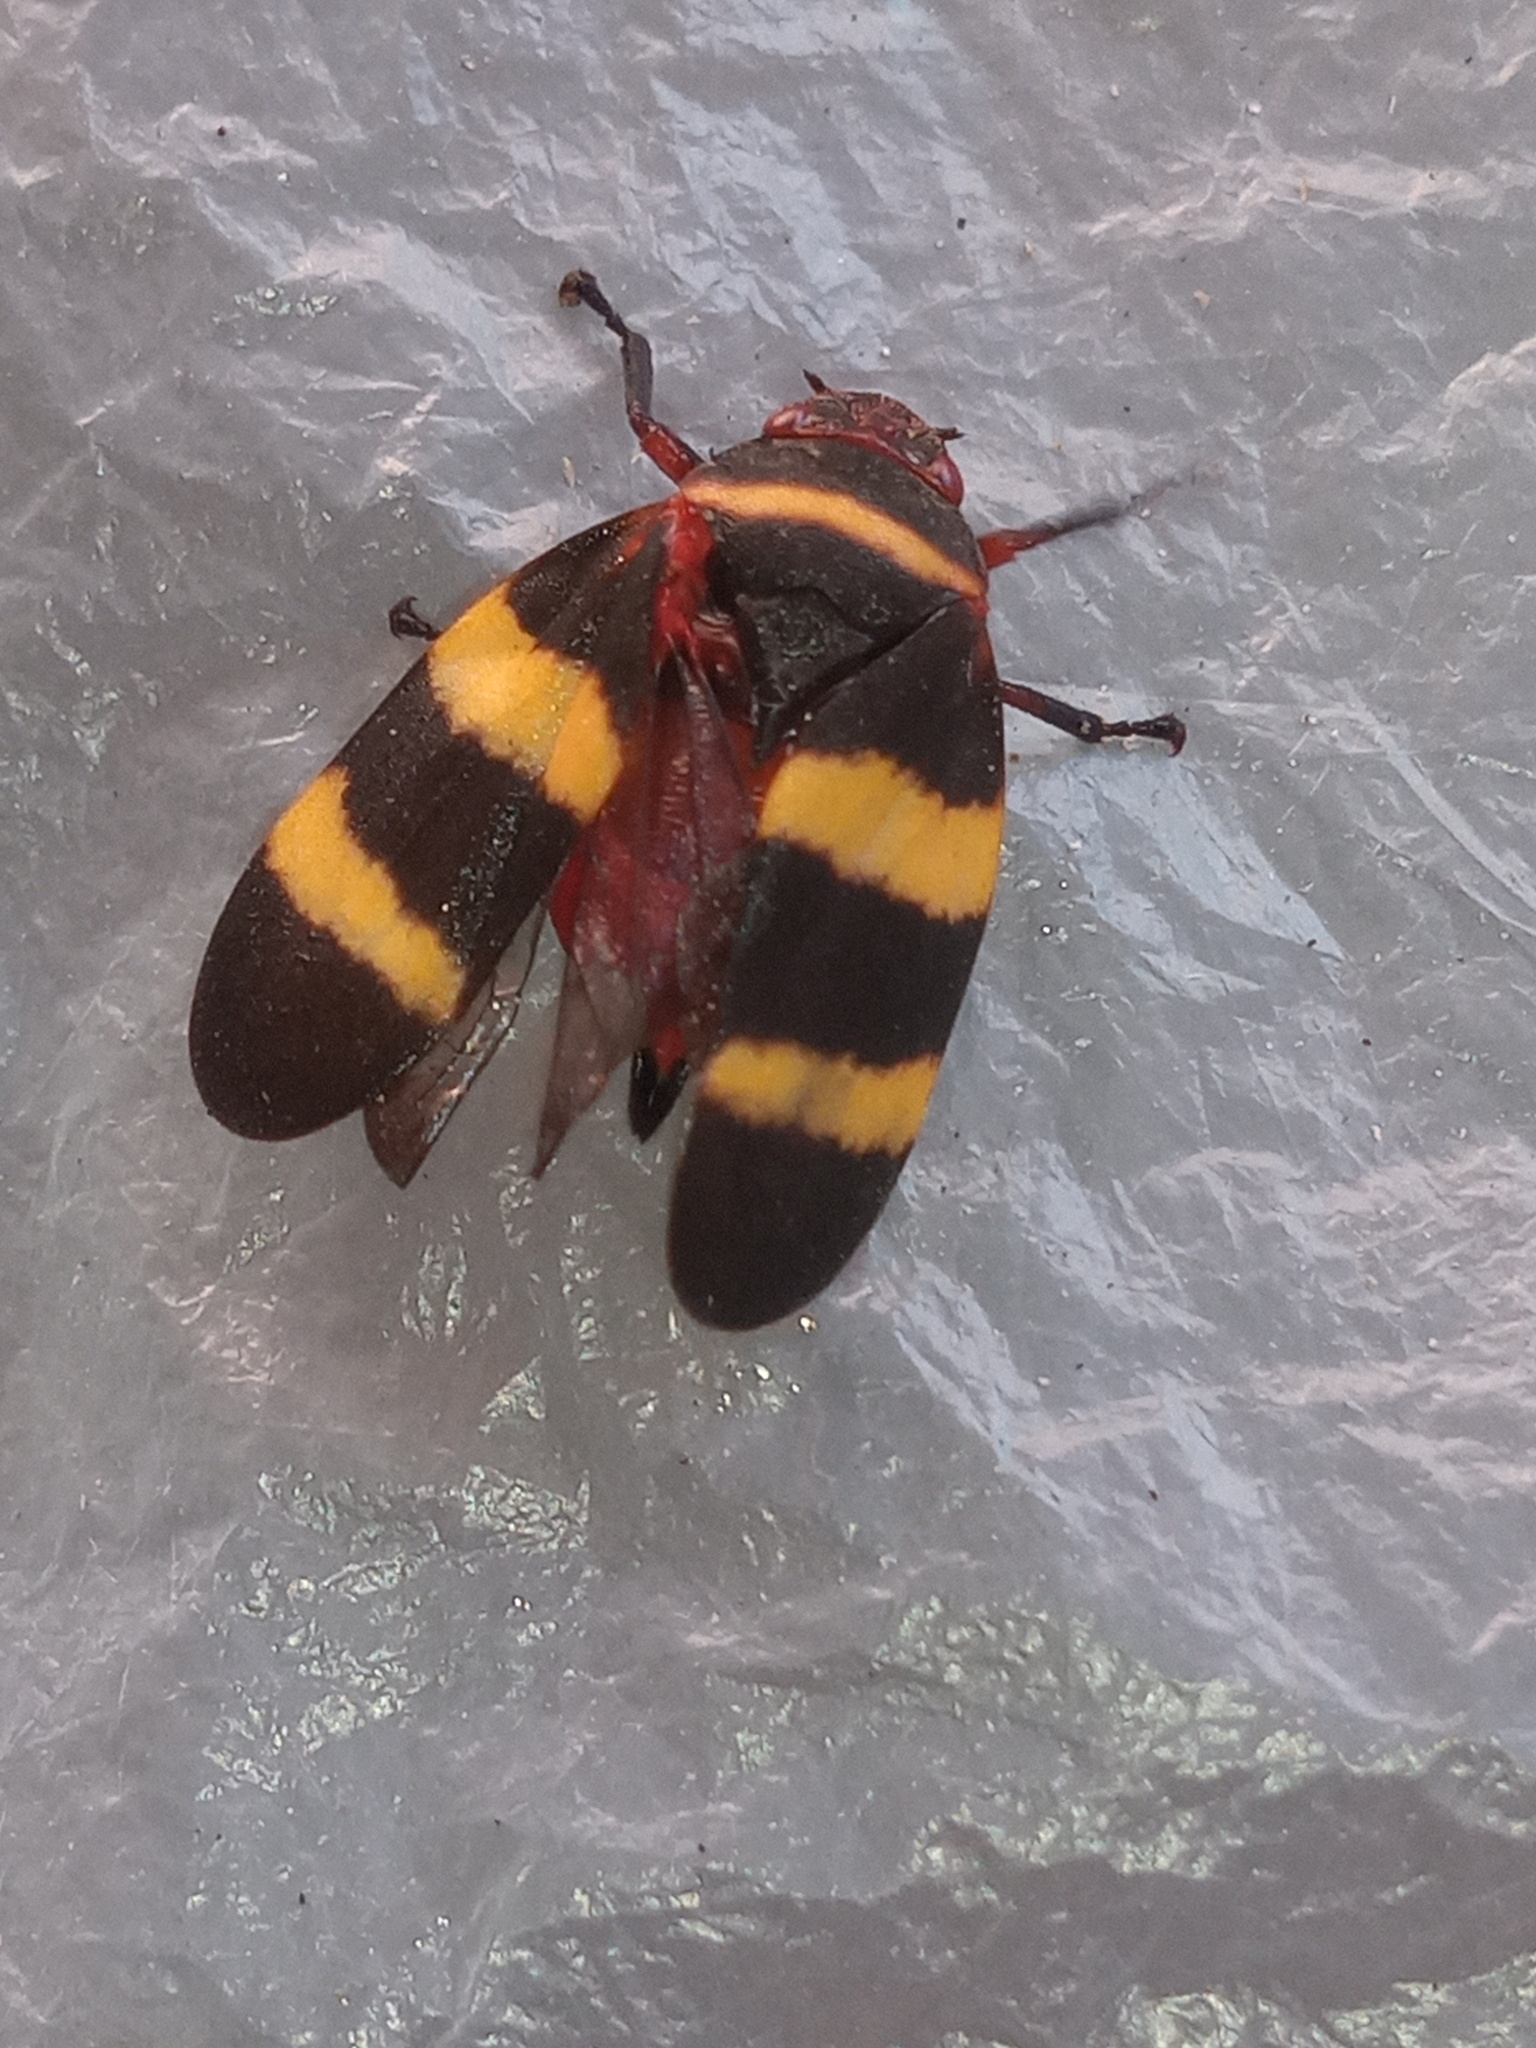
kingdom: Animalia
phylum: Arthropoda
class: Insecta
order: Hemiptera
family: Cercopidae
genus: Prosapia
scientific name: Prosapia simulans
